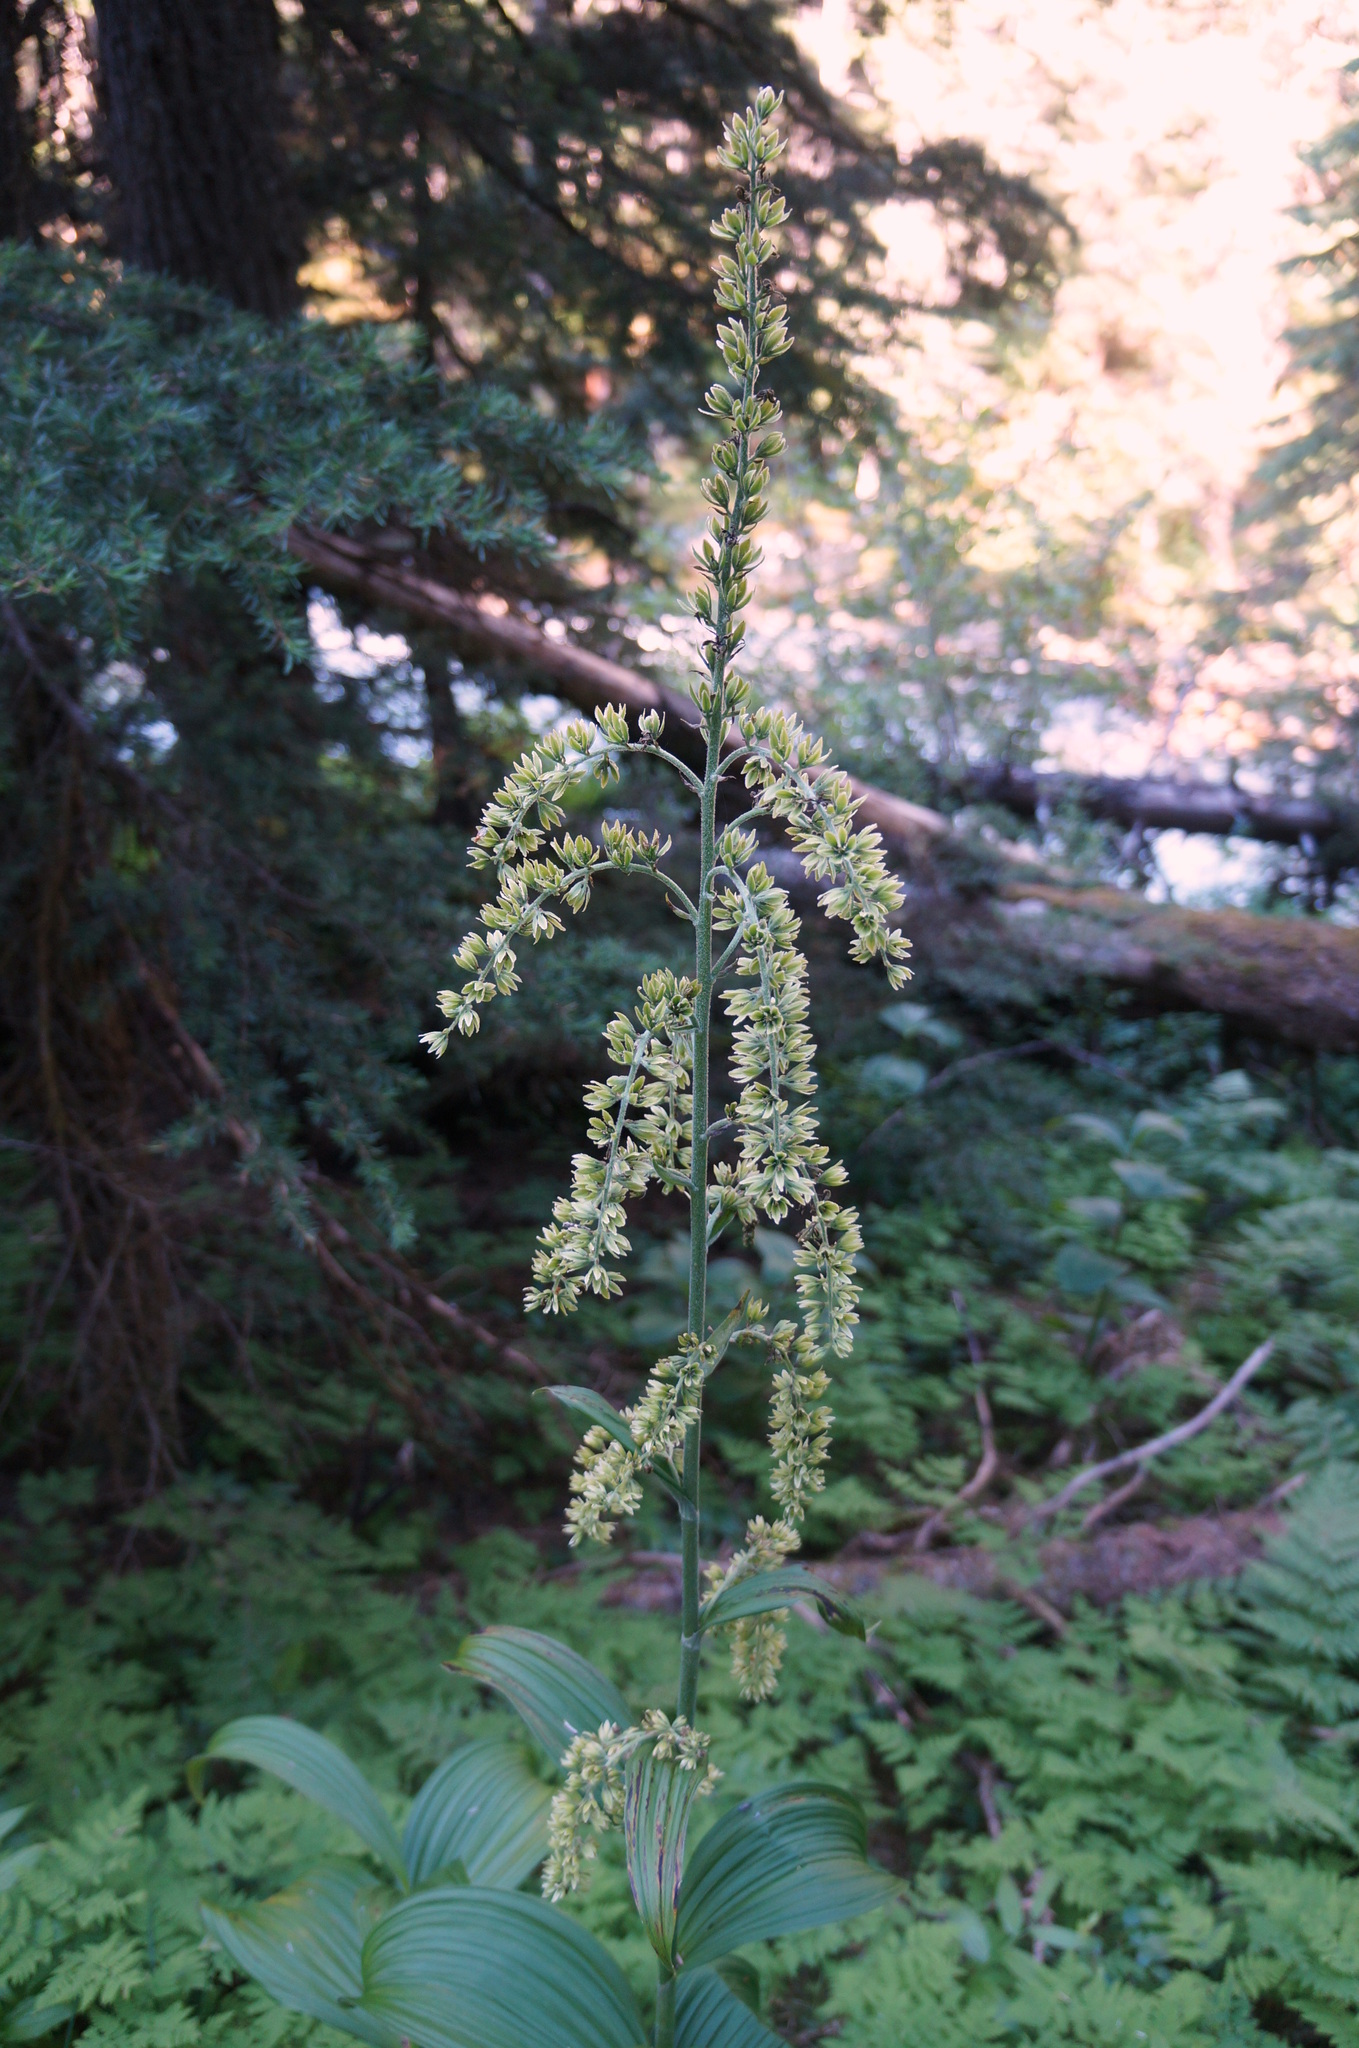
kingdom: Plantae
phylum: Tracheophyta
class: Liliopsida
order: Liliales
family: Melanthiaceae
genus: Veratrum
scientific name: Veratrum viride
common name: American false hellebore
